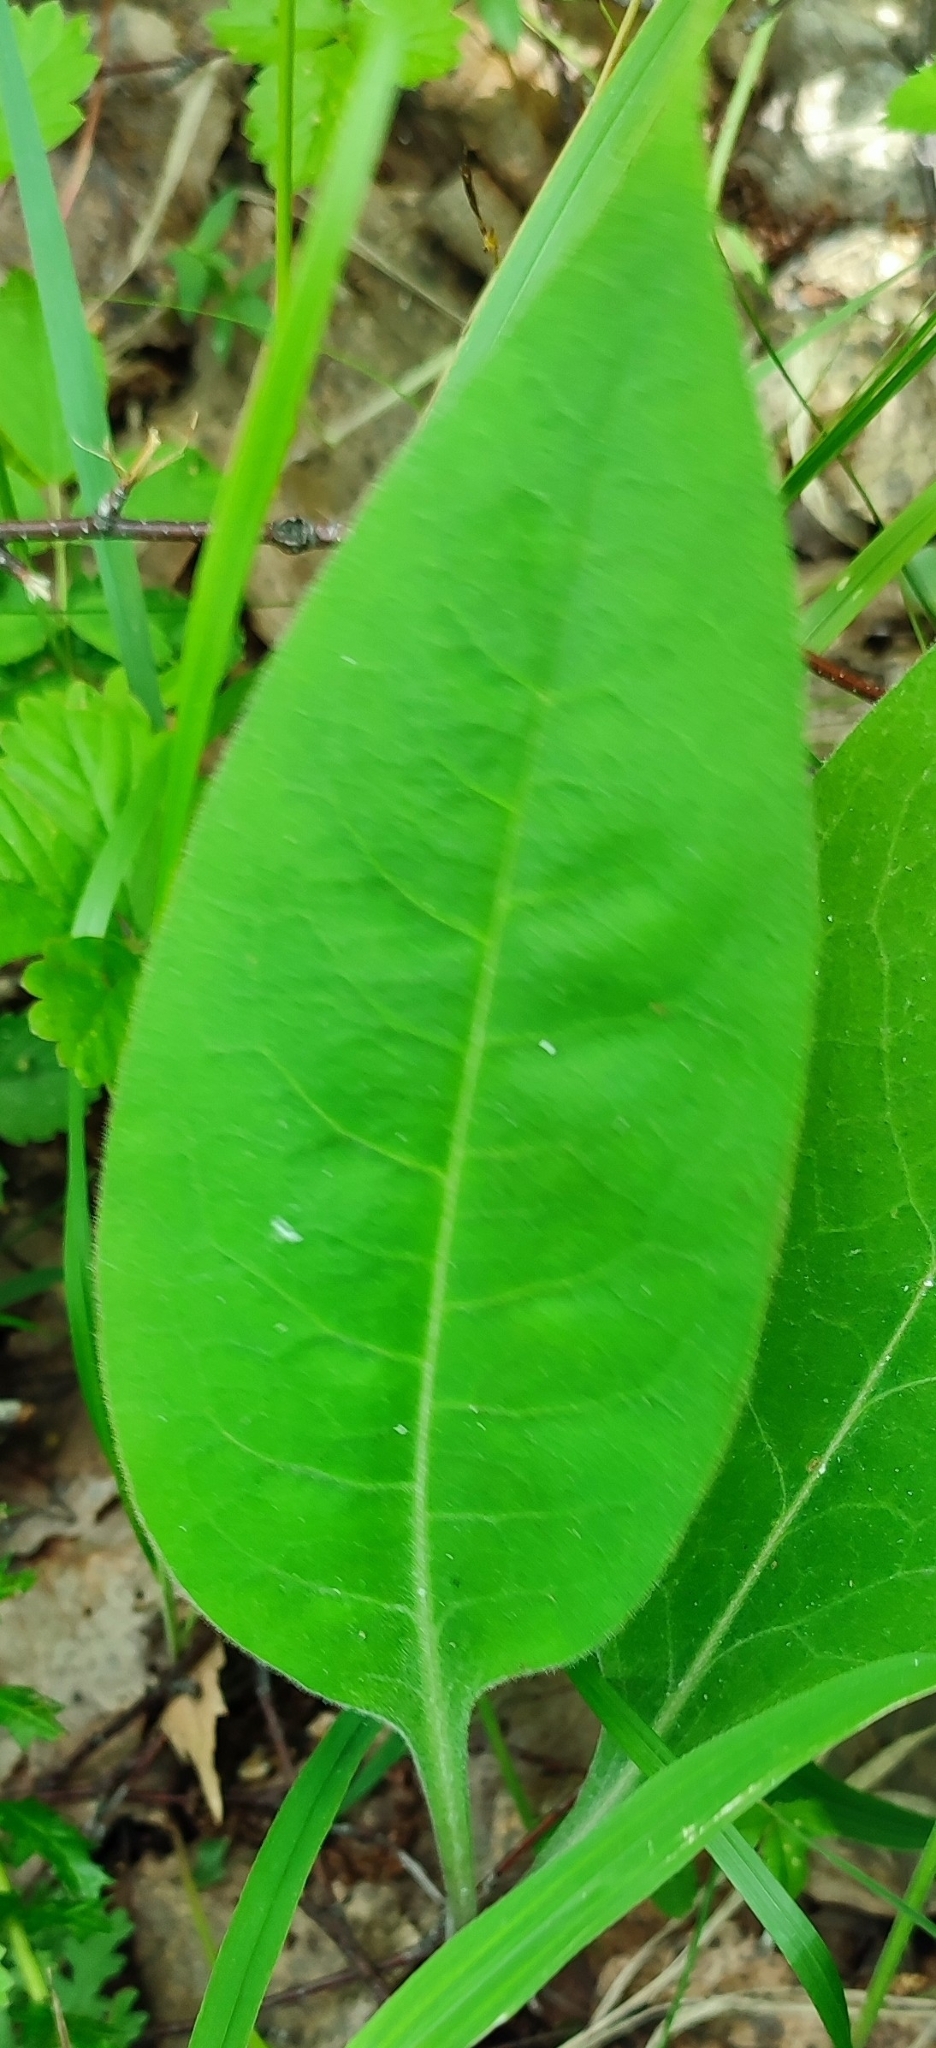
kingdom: Plantae
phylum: Tracheophyta
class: Magnoliopsida
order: Boraginales
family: Boraginaceae
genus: Pulmonaria
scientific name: Pulmonaria mollis
